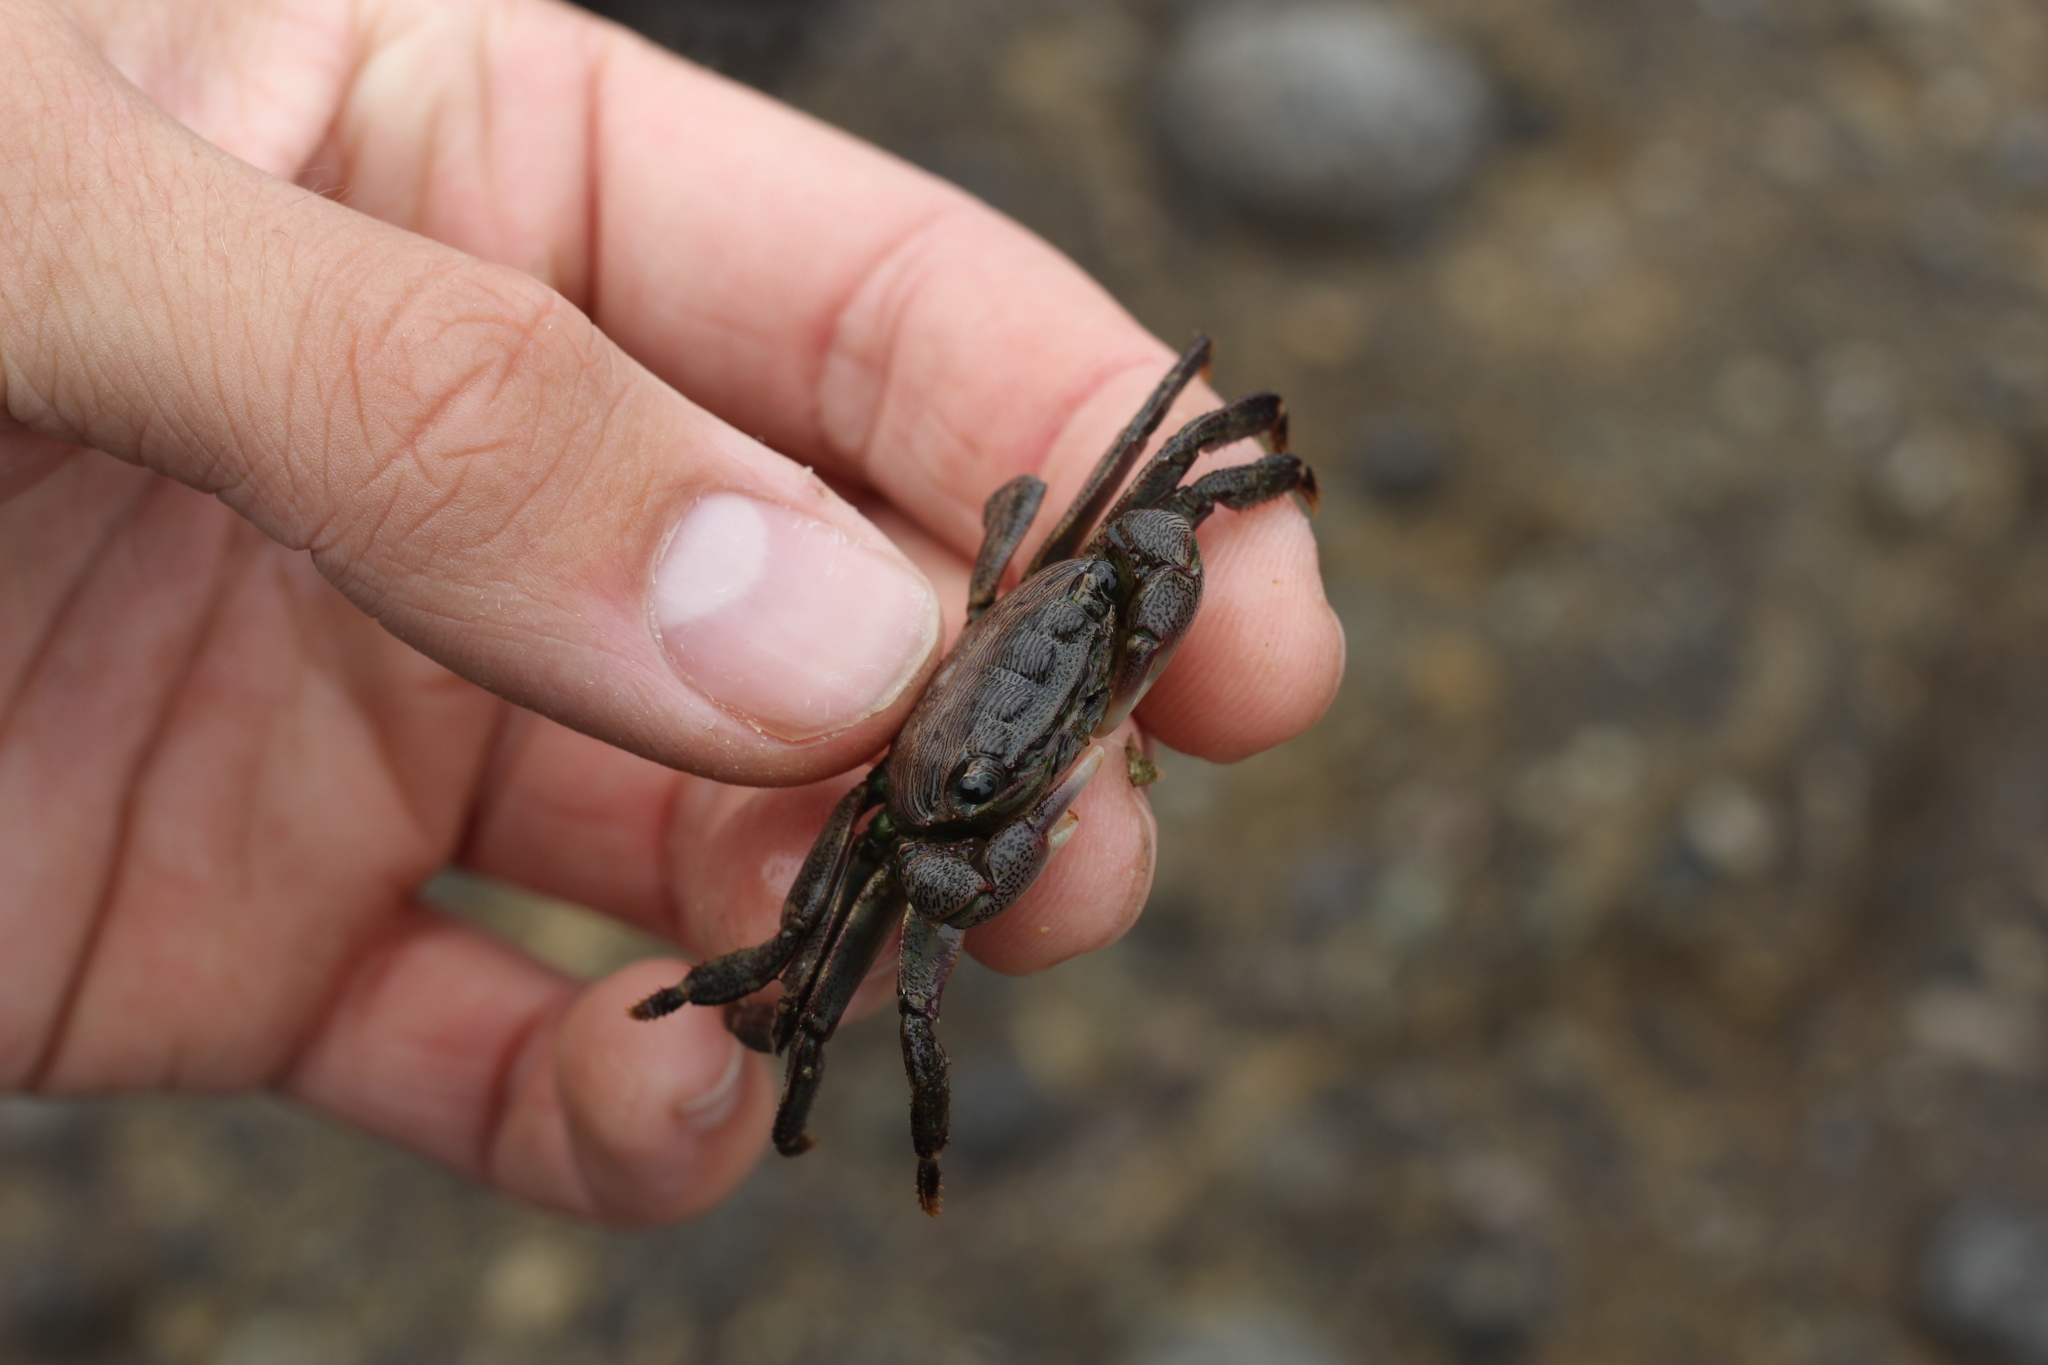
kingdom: Animalia
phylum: Arthropoda
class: Malacostraca
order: Decapoda
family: Grapsidae
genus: Pachygrapsus
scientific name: Pachygrapsus crassipes
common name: Striped shore crab
